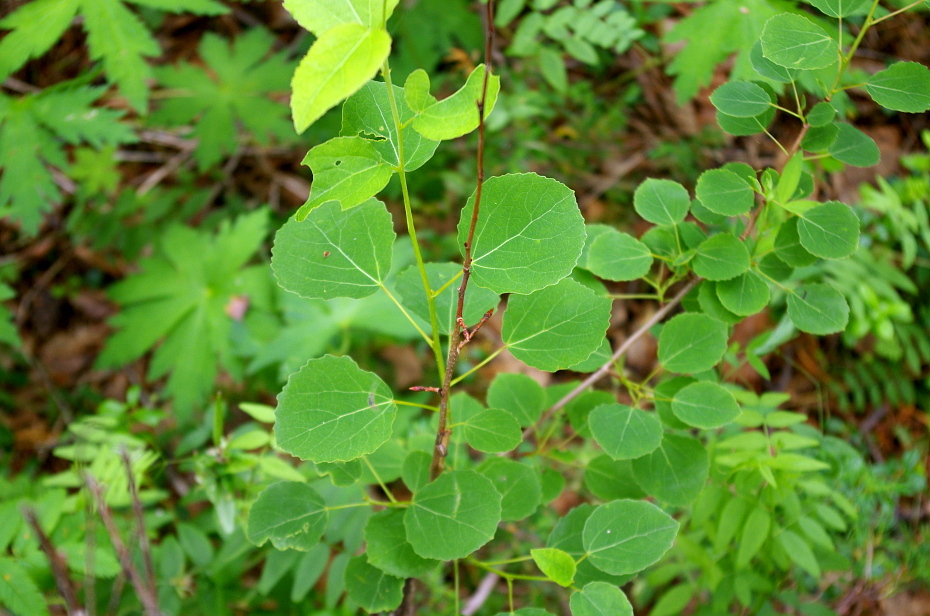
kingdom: Plantae
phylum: Tracheophyta
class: Magnoliopsida
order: Malpighiales
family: Salicaceae
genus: Populus
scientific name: Populus tremula
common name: European aspen
